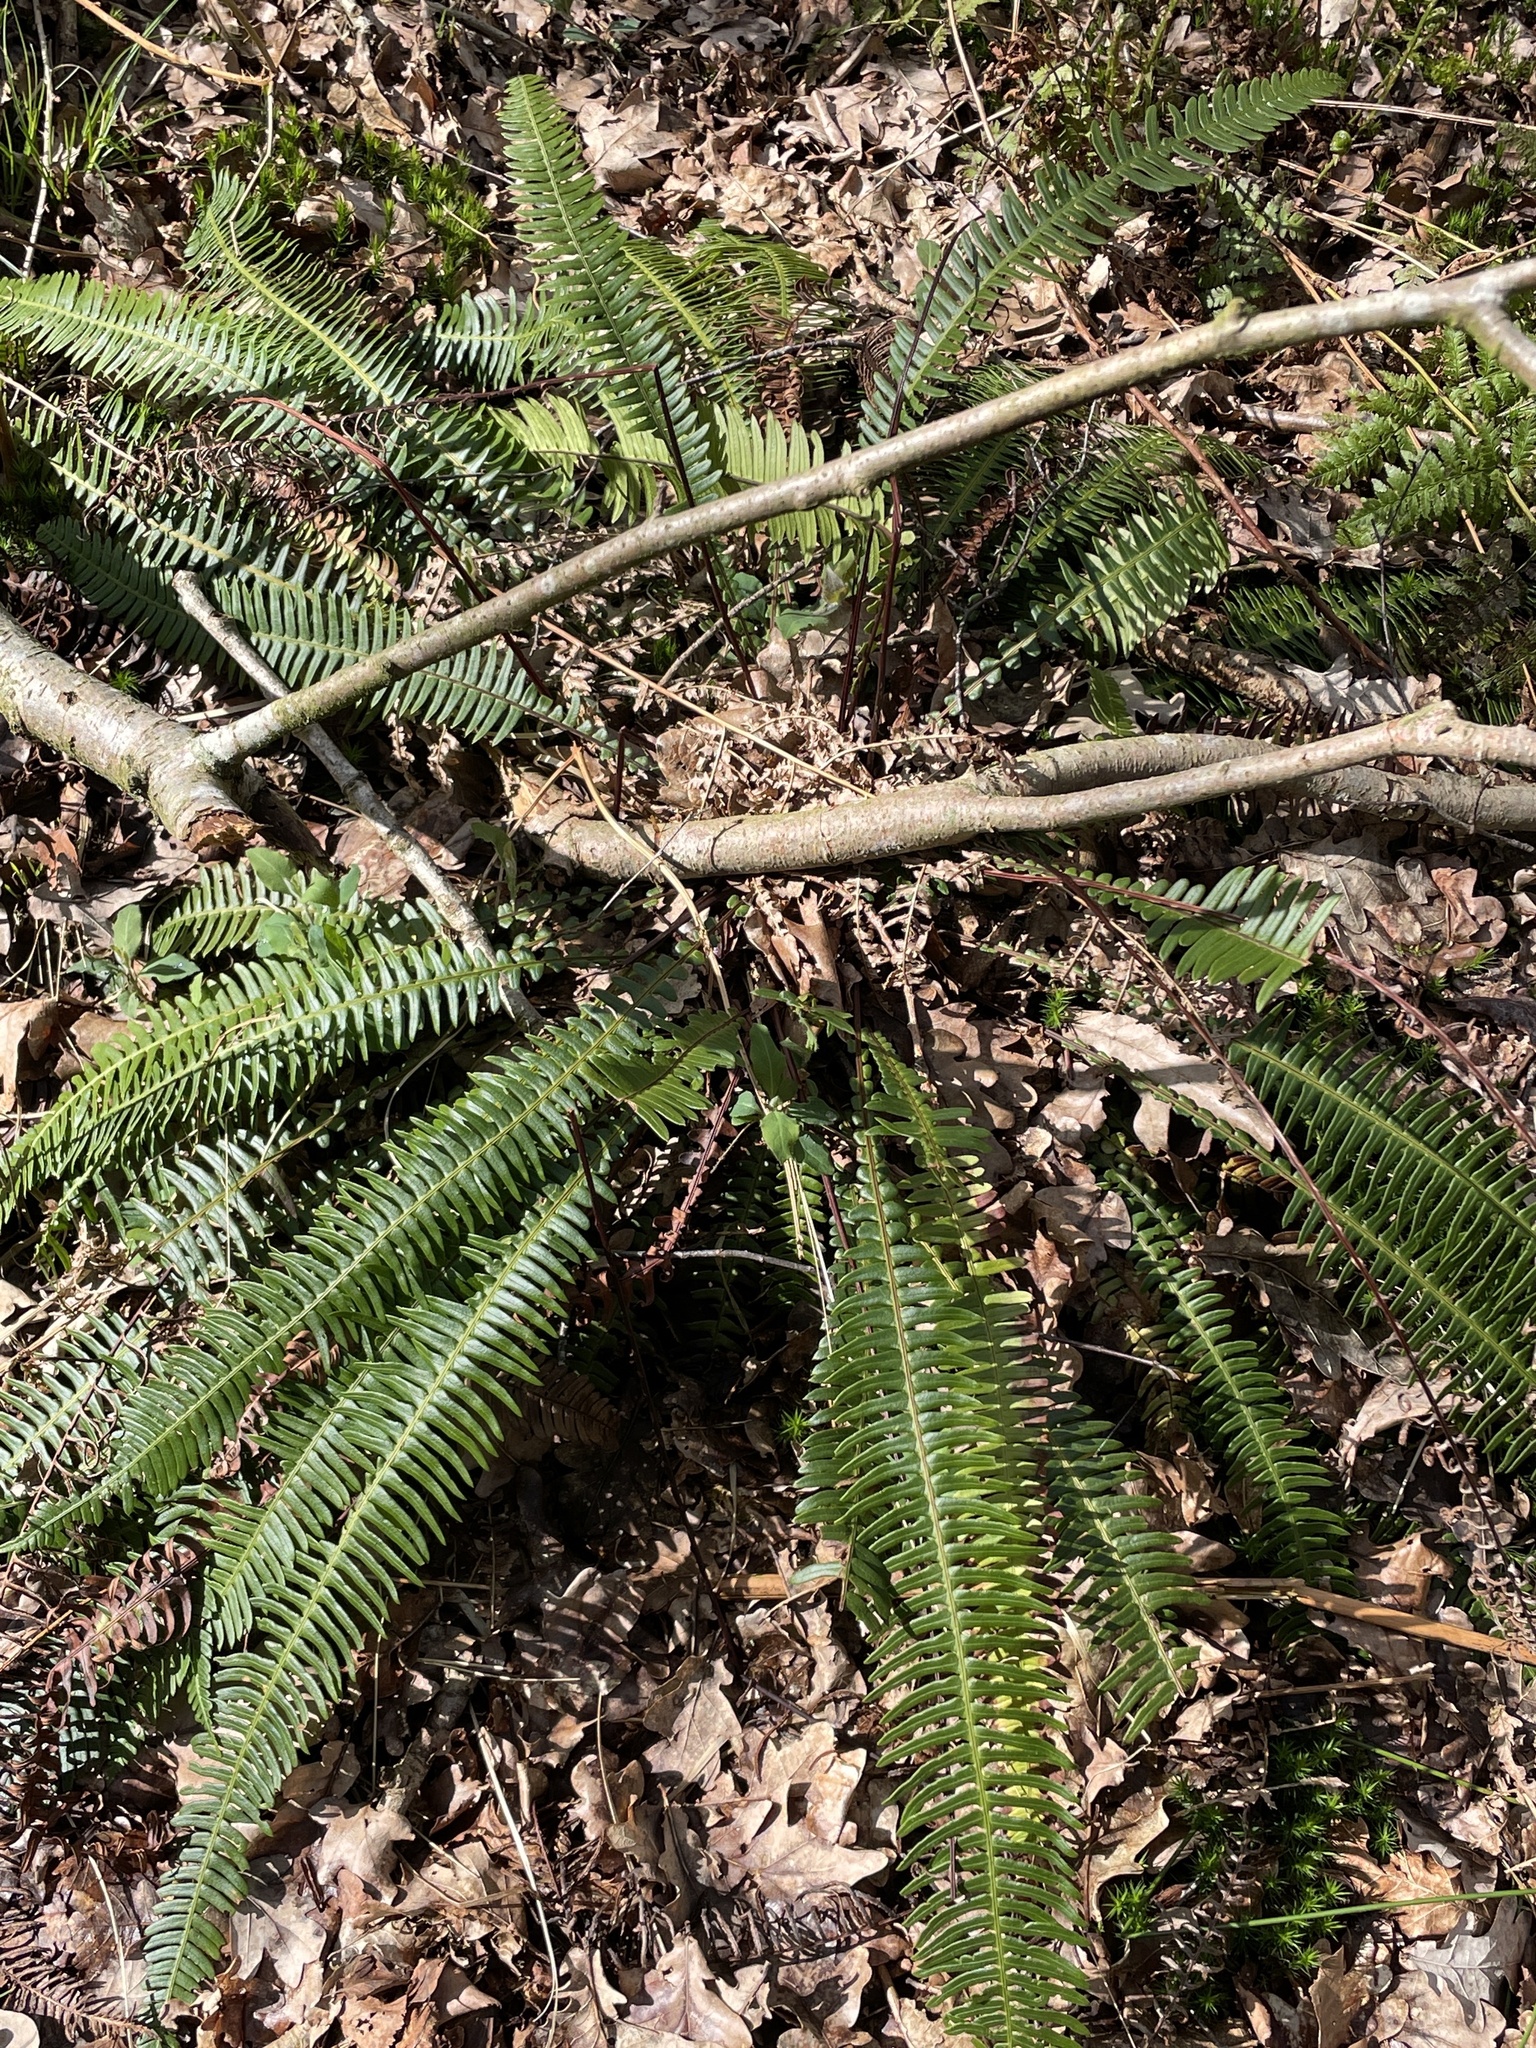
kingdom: Plantae
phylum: Tracheophyta
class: Polypodiopsida
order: Polypodiales
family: Blechnaceae
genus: Struthiopteris
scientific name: Struthiopteris spicant
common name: Deer fern
